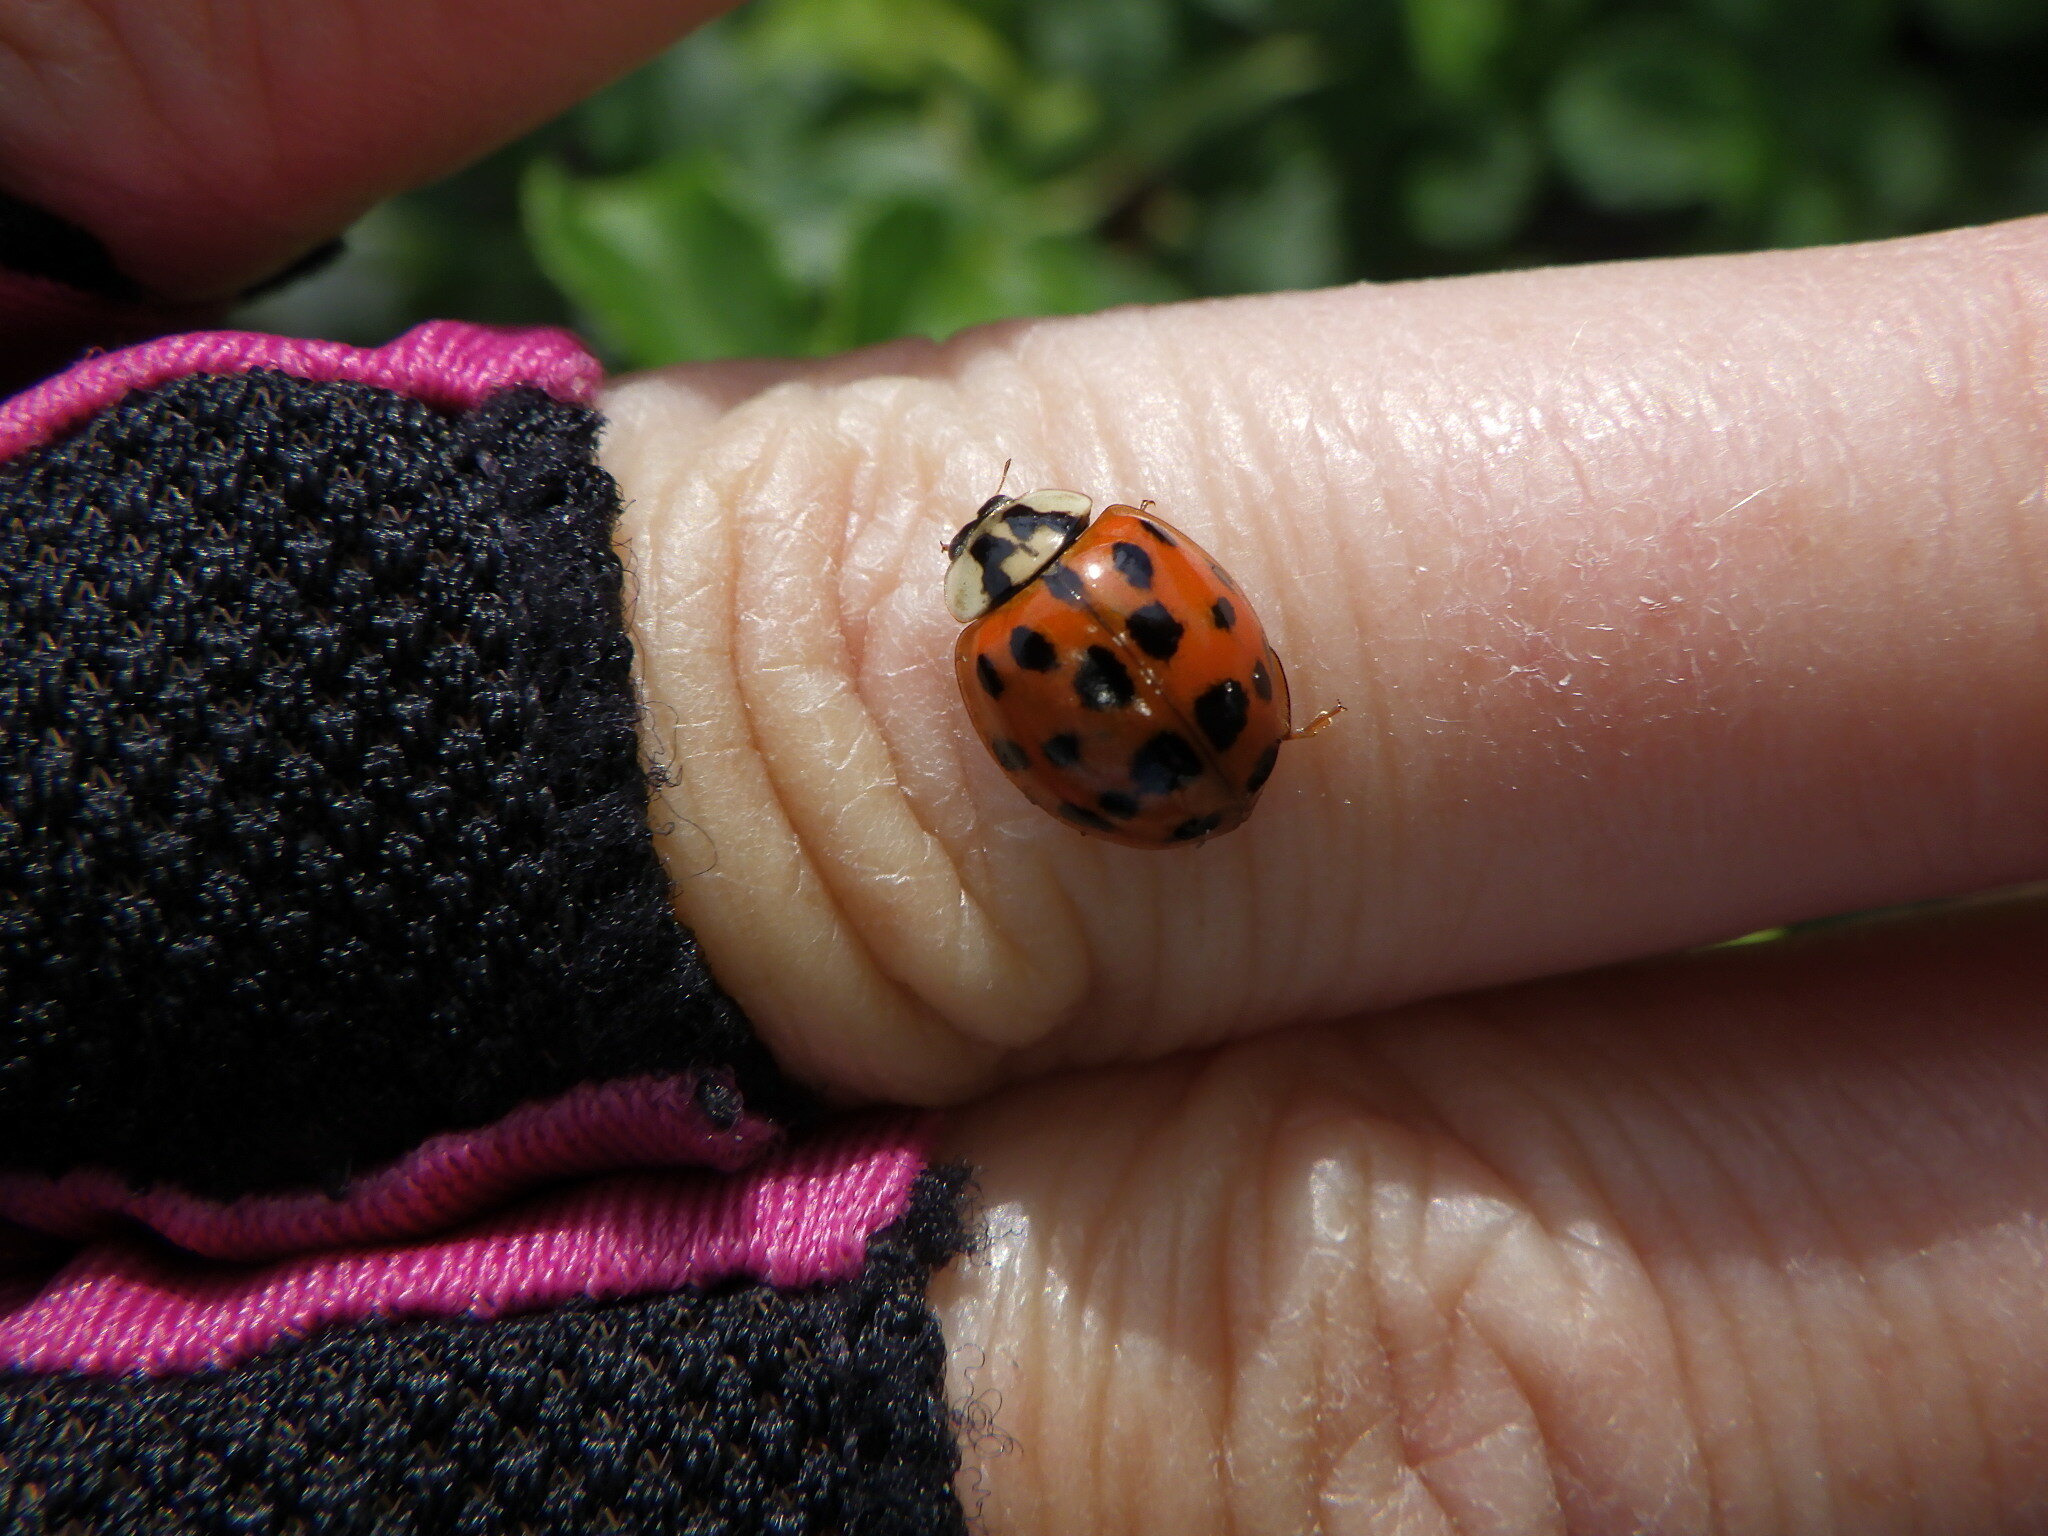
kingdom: Animalia
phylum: Arthropoda
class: Insecta
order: Coleoptera
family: Coccinellidae
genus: Harmonia
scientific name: Harmonia axyridis
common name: Harlequin ladybird
